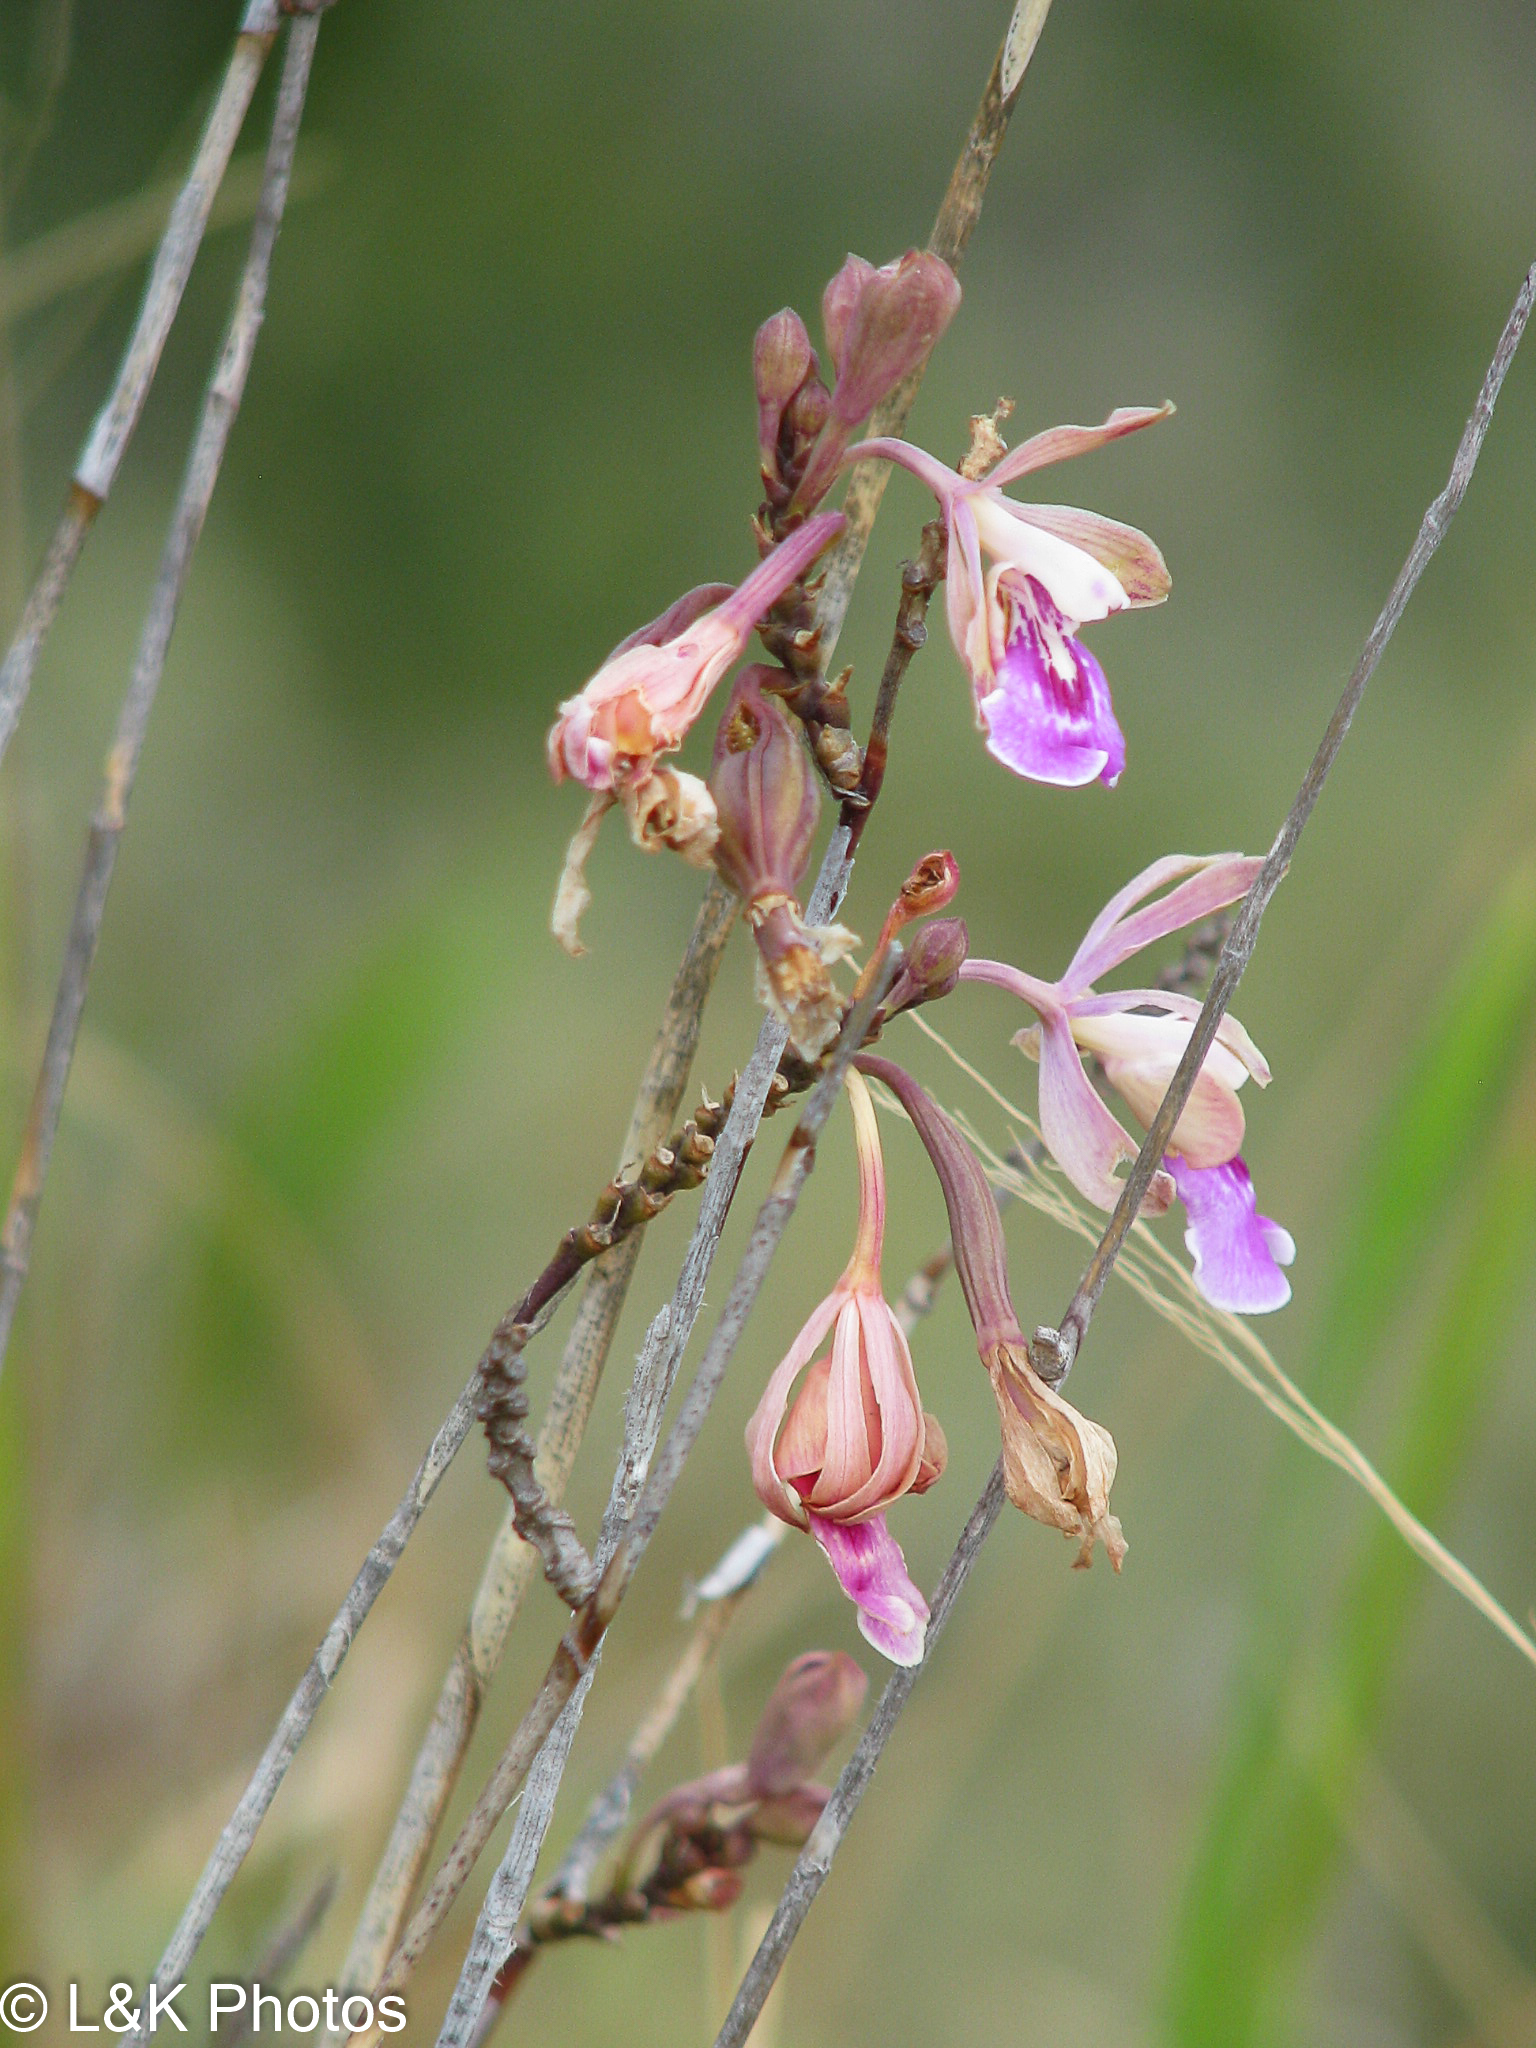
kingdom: Plantae
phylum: Tracheophyta
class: Liliopsida
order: Asparagales
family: Orchidaceae
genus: Psychilis
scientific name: Psychilis macconnelliae
